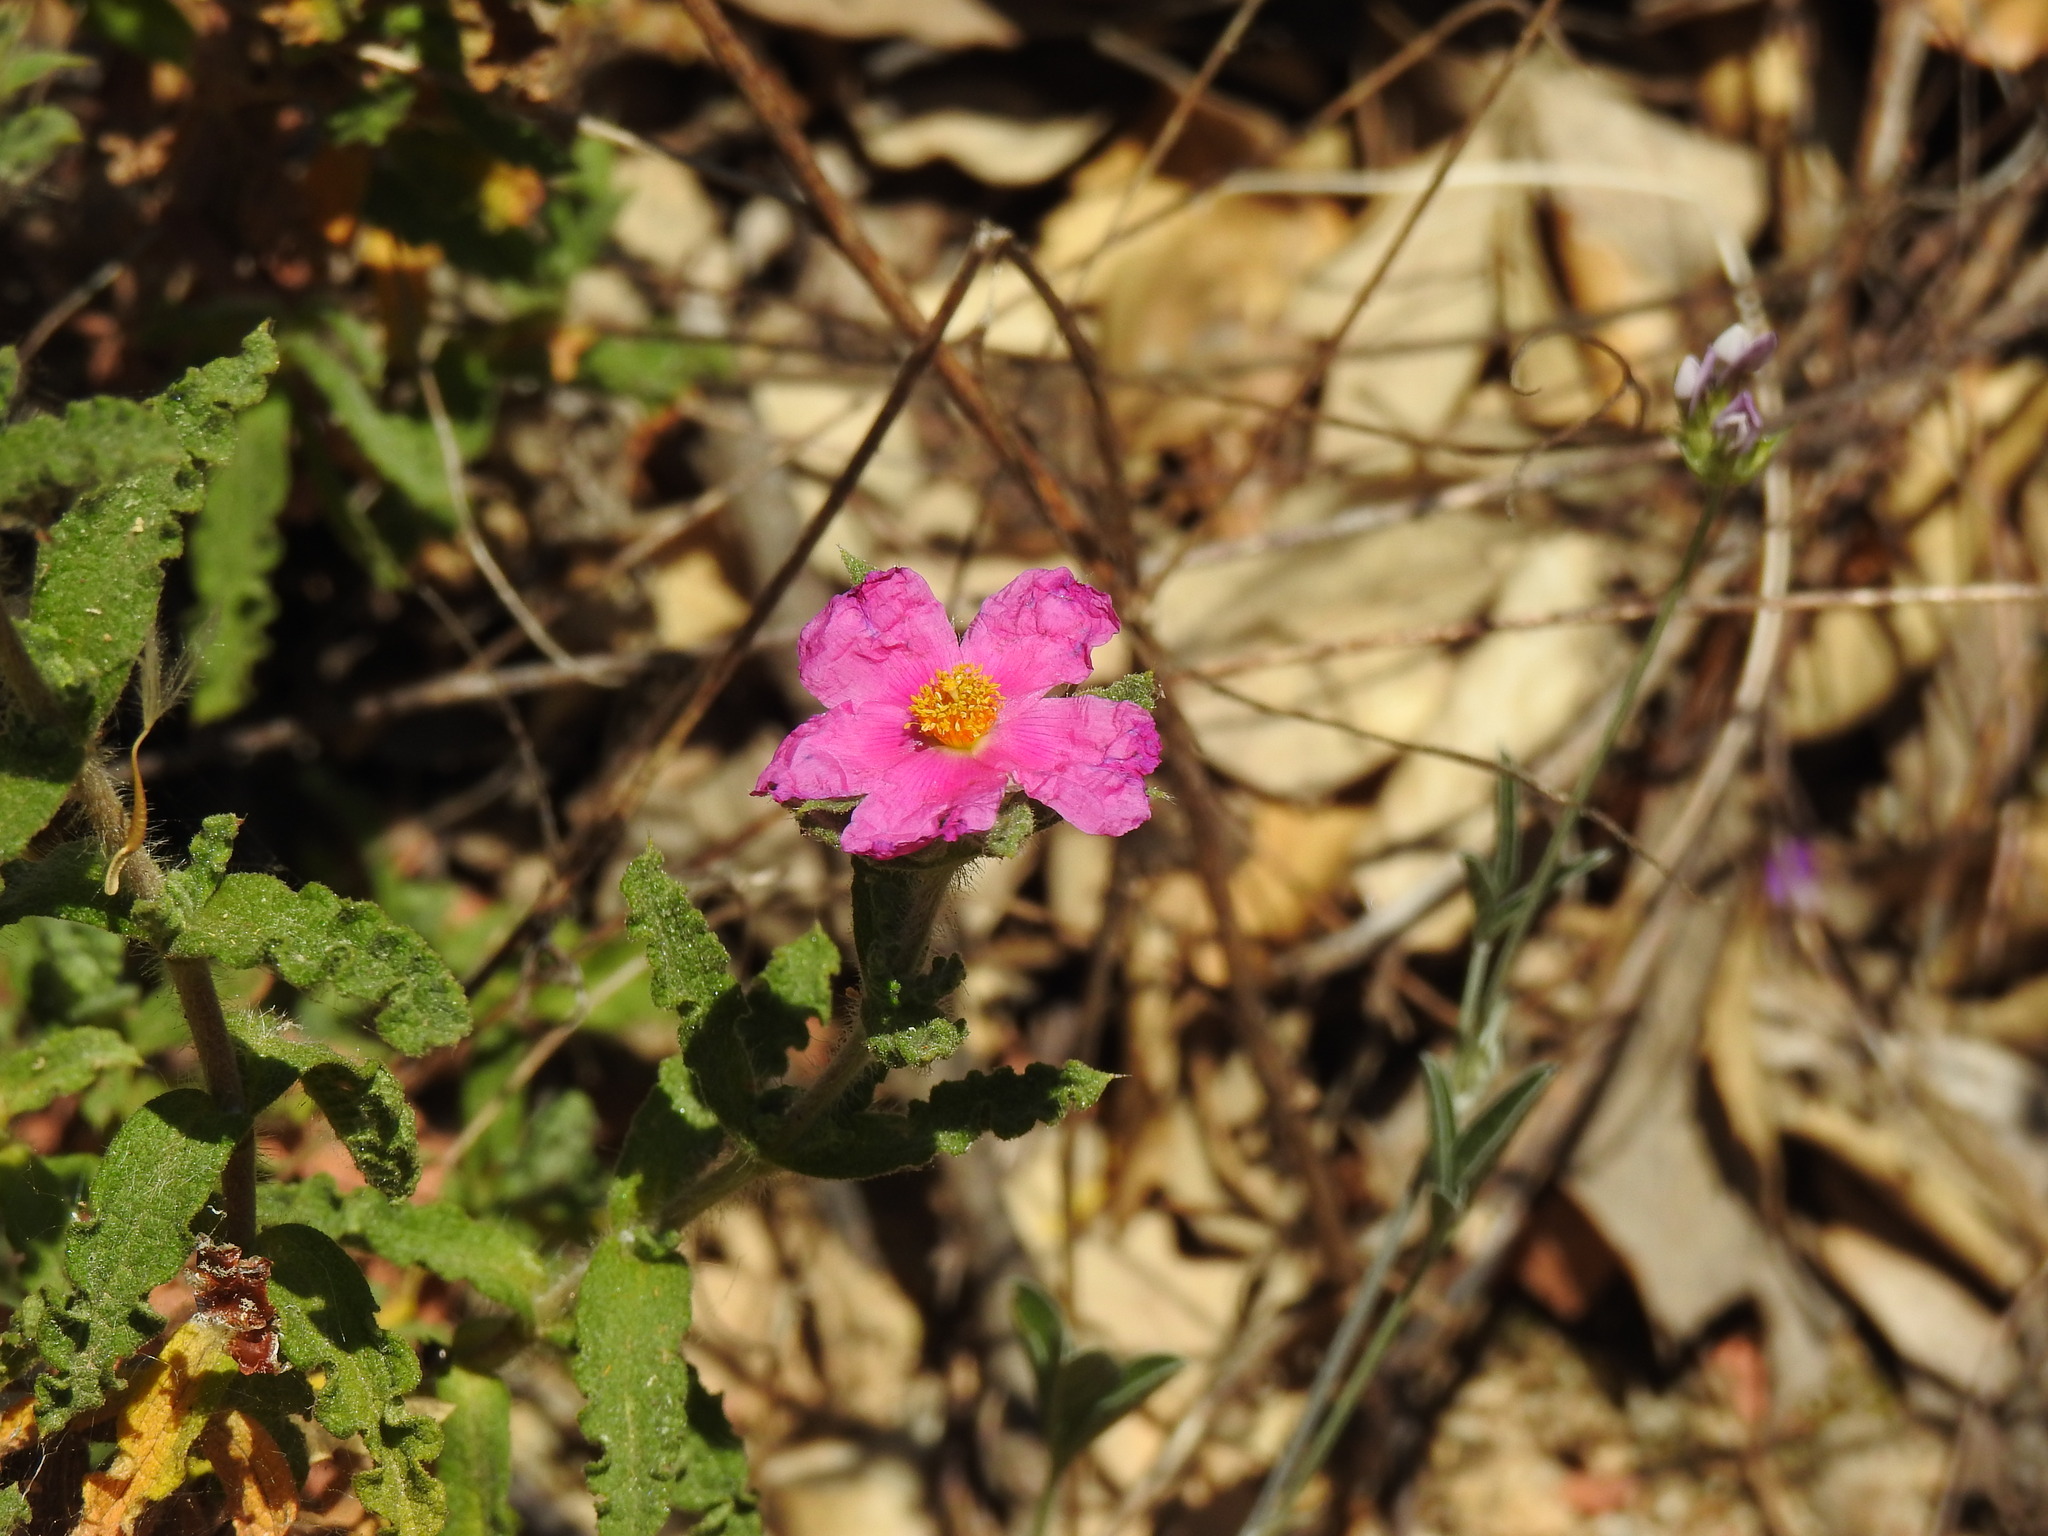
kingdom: Plantae
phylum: Tracheophyta
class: Magnoliopsida
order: Malvales
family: Cistaceae
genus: Cistus
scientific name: Cistus crispus
